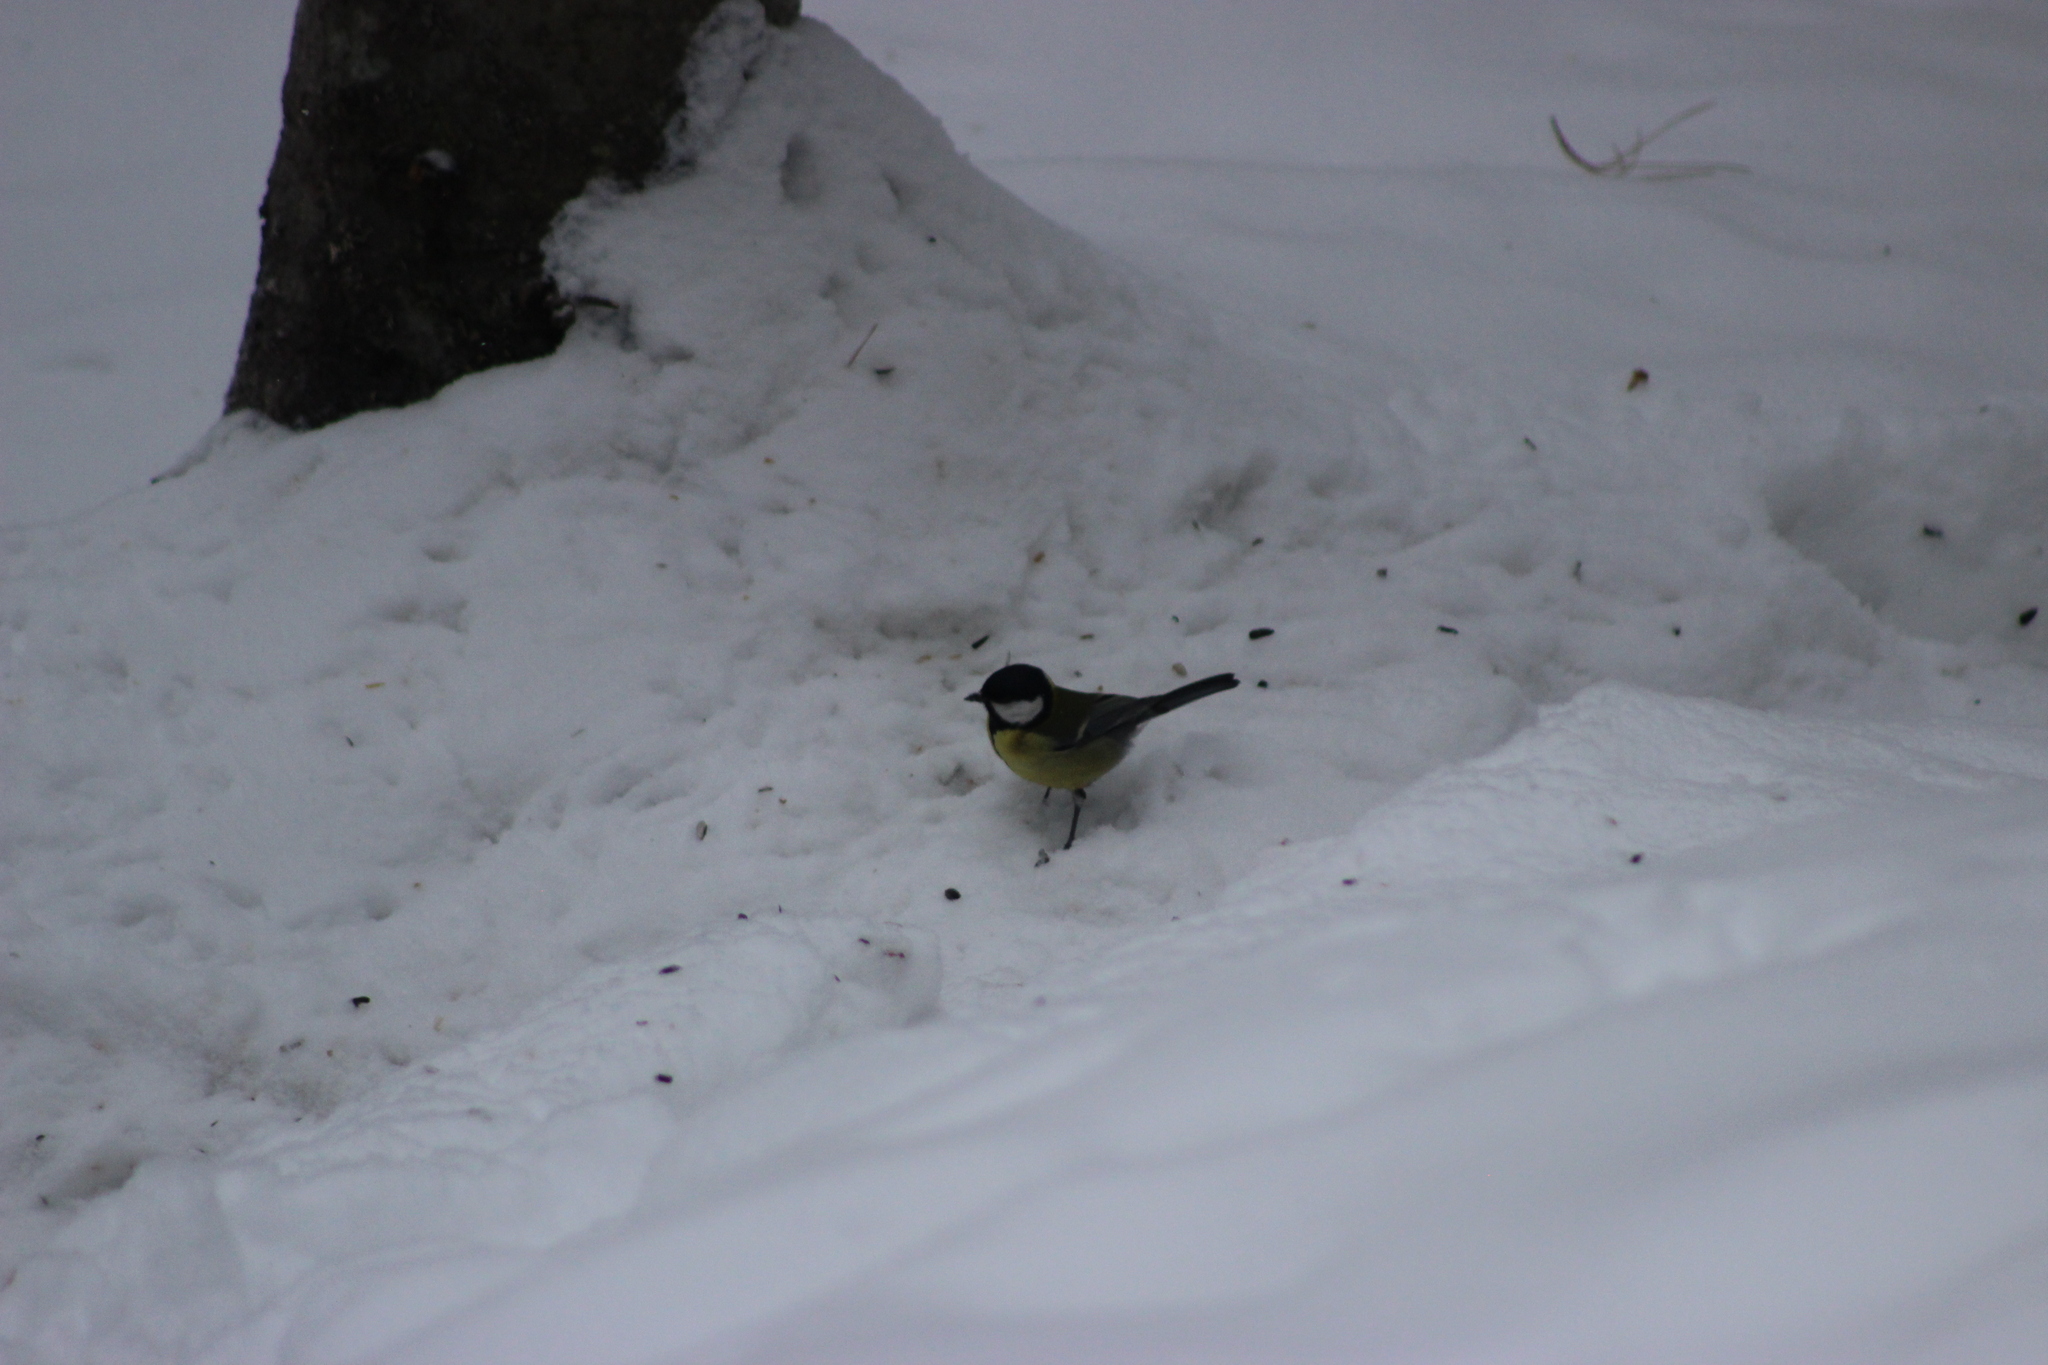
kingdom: Animalia
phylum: Chordata
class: Aves
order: Passeriformes
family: Paridae
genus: Parus
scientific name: Parus major
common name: Great tit
